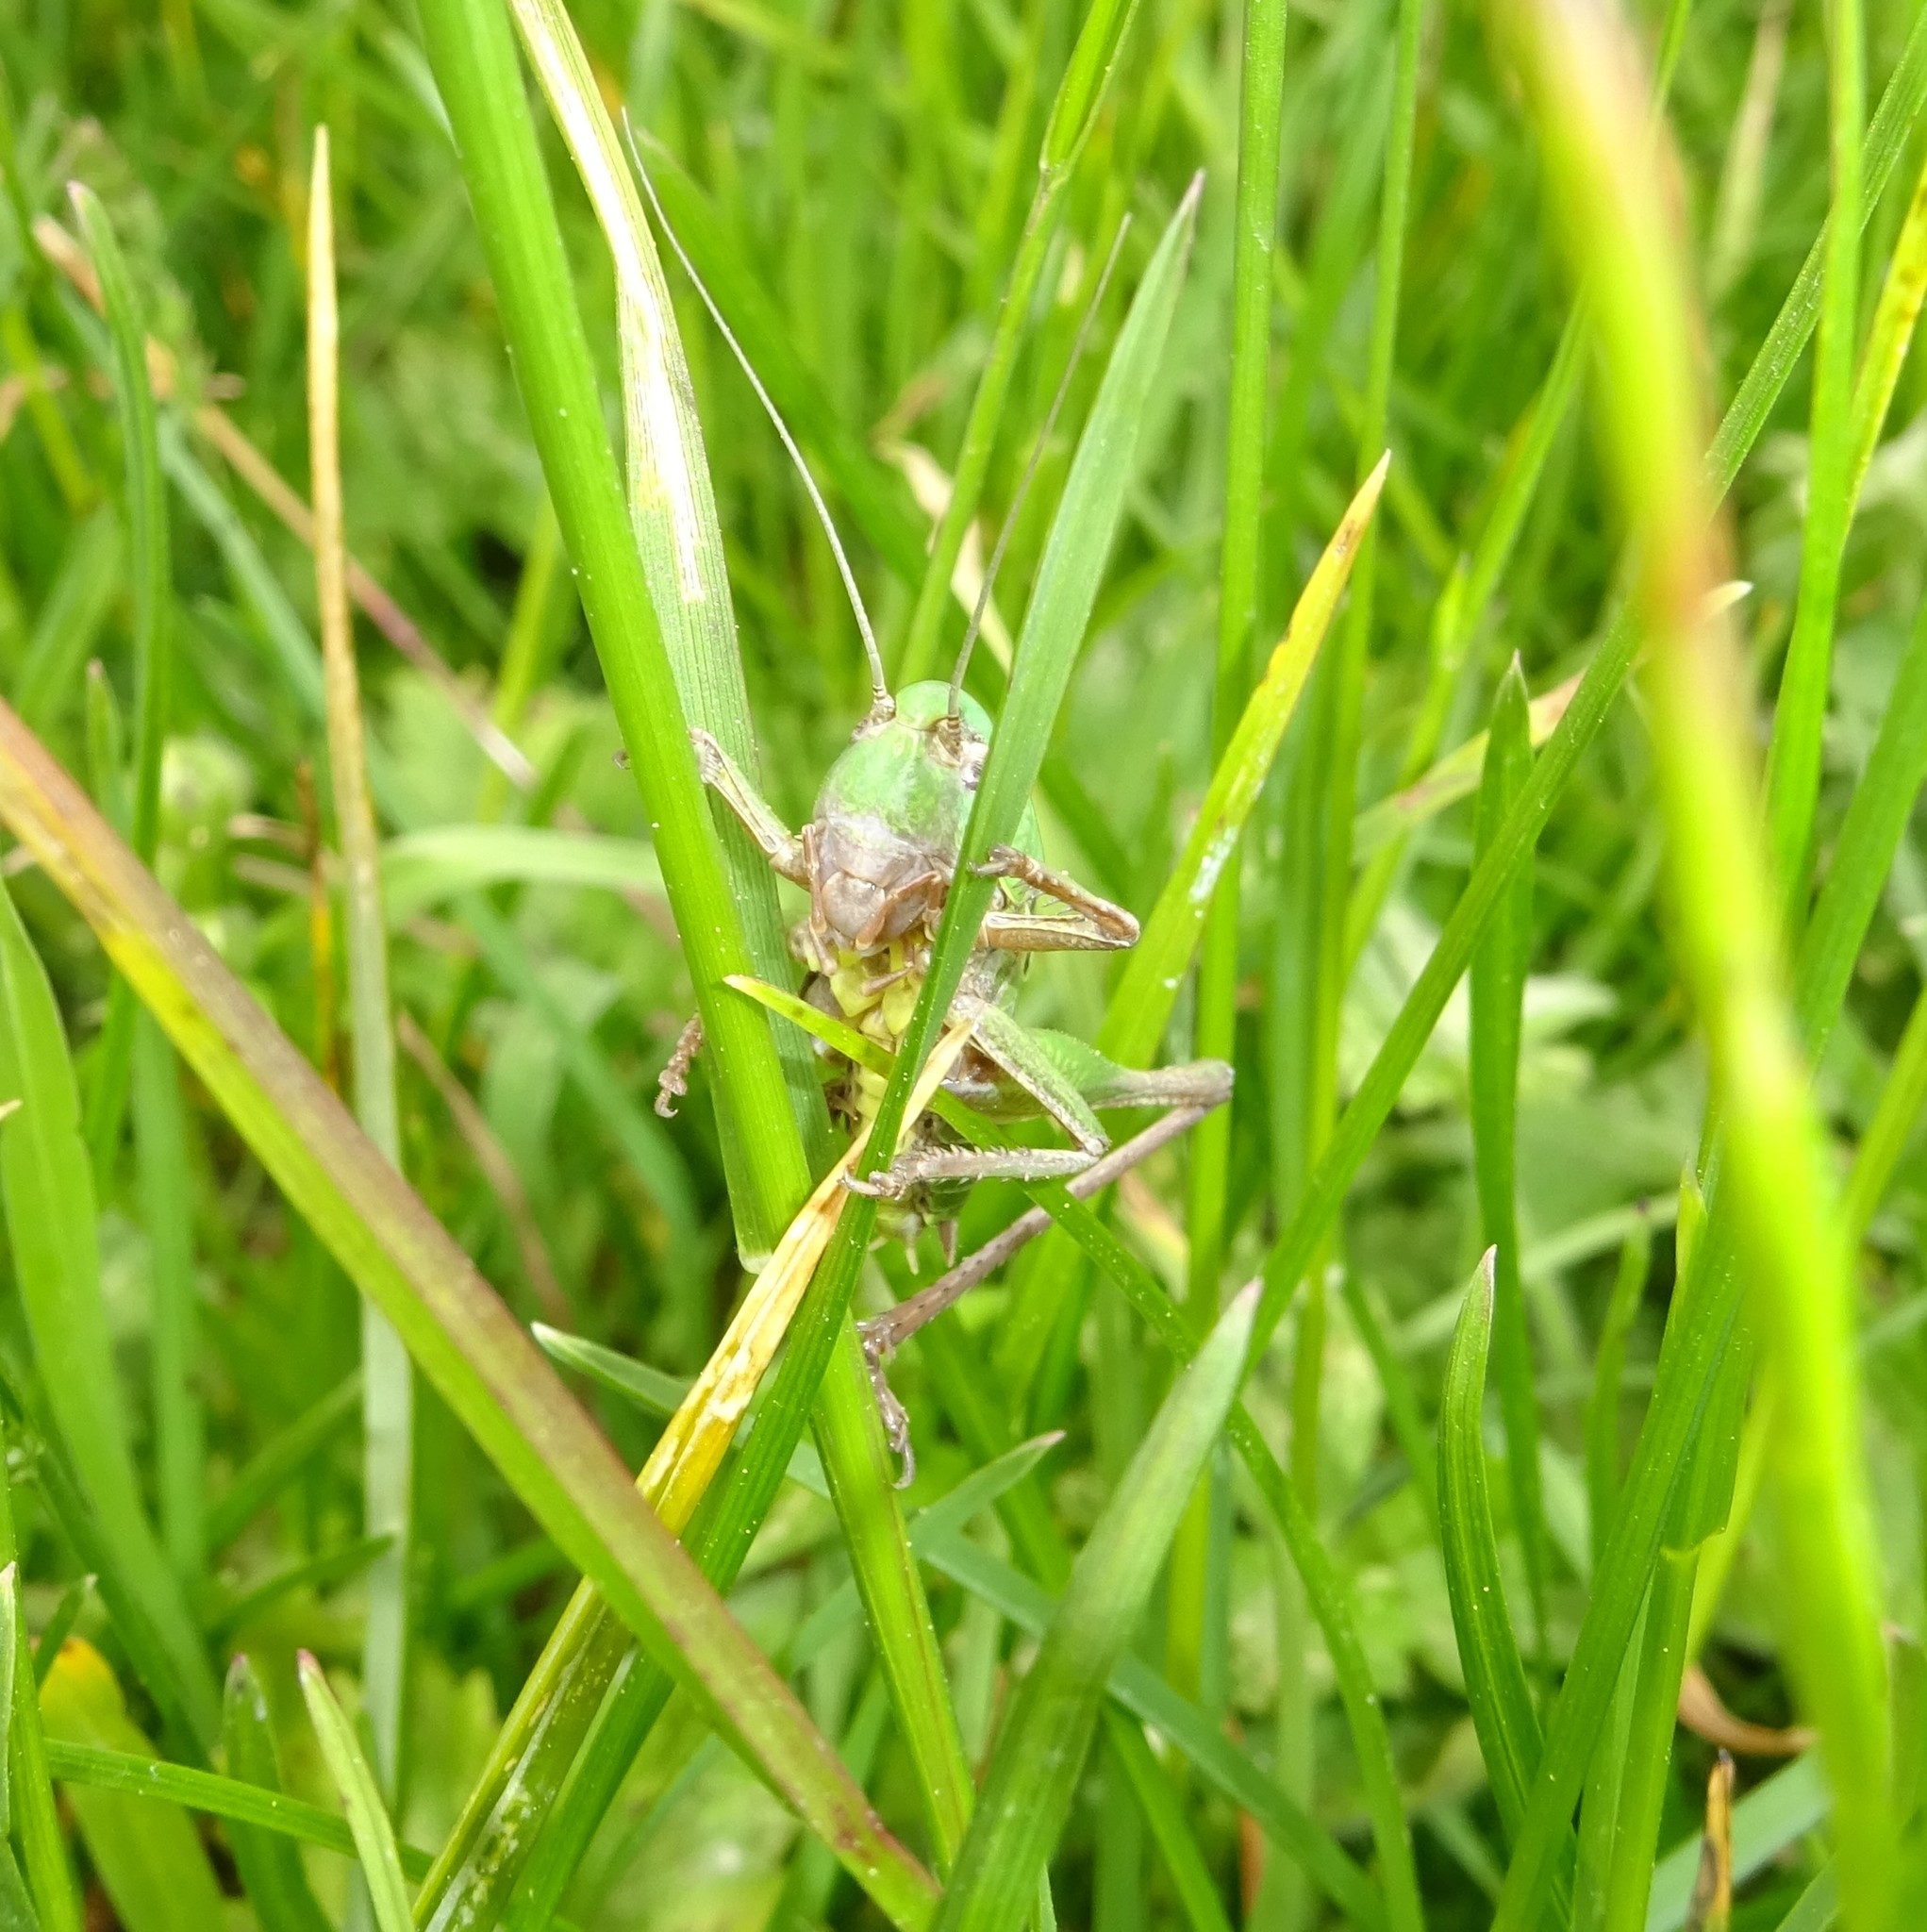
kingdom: Animalia
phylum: Arthropoda
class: Insecta
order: Orthoptera
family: Tettigoniidae
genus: Decticus
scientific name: Decticus verrucivorus
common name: Wart-biter
